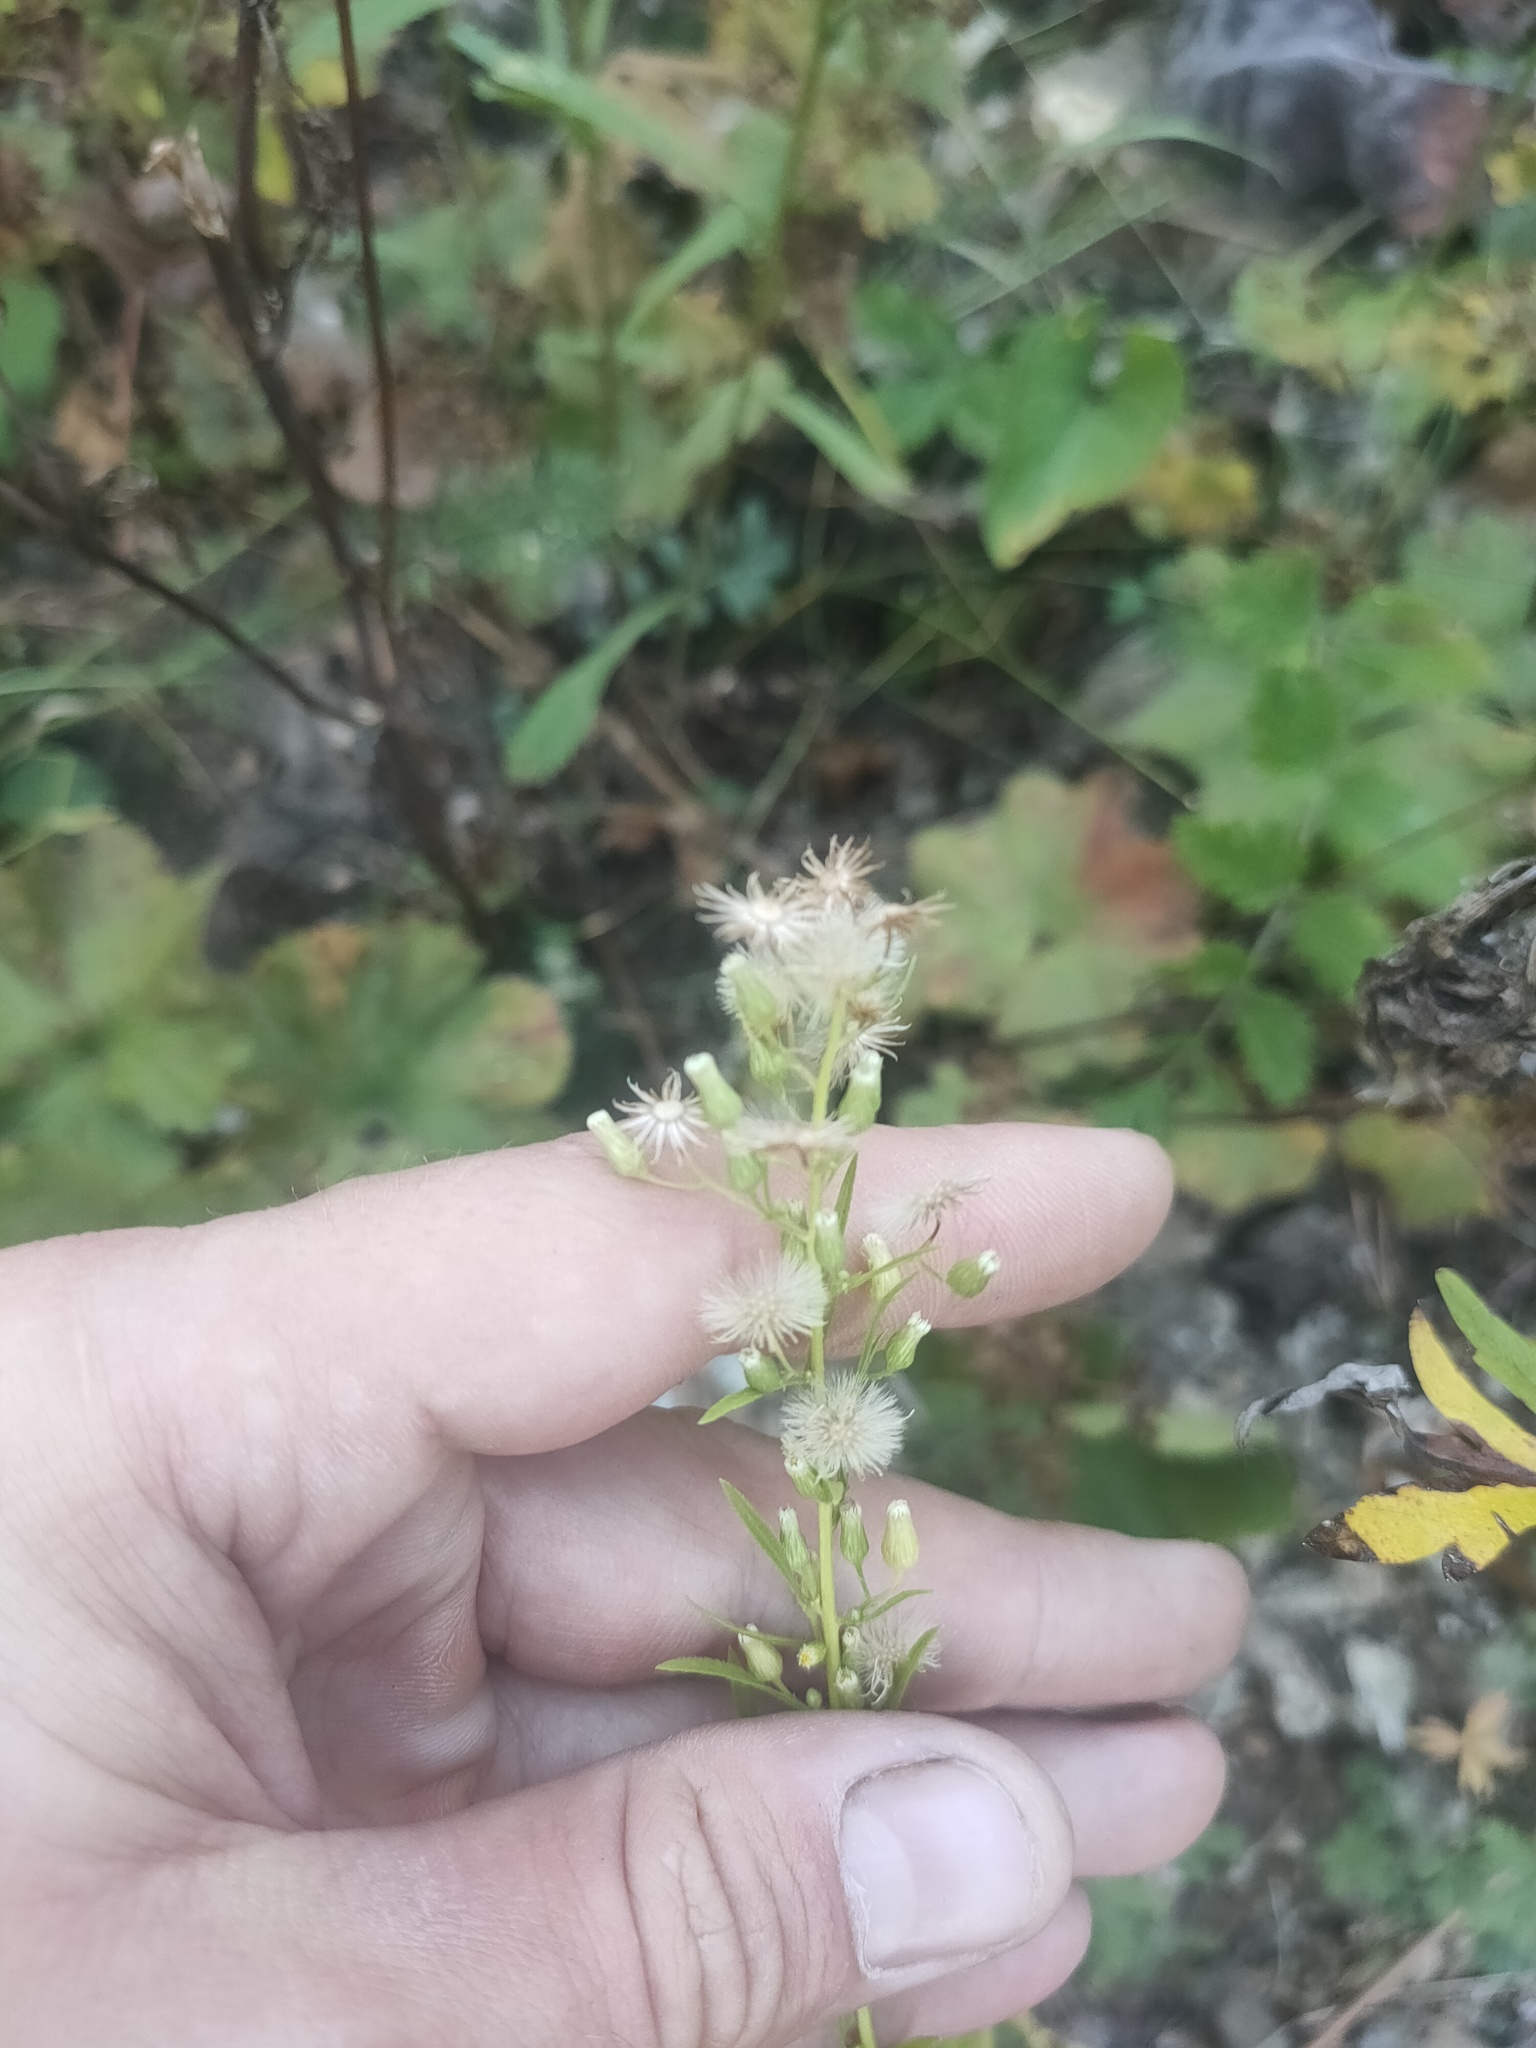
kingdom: Plantae
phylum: Tracheophyta
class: Magnoliopsida
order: Asterales
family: Asteraceae
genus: Erigeron
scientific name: Erigeron canadensis
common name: Canadian fleabane
